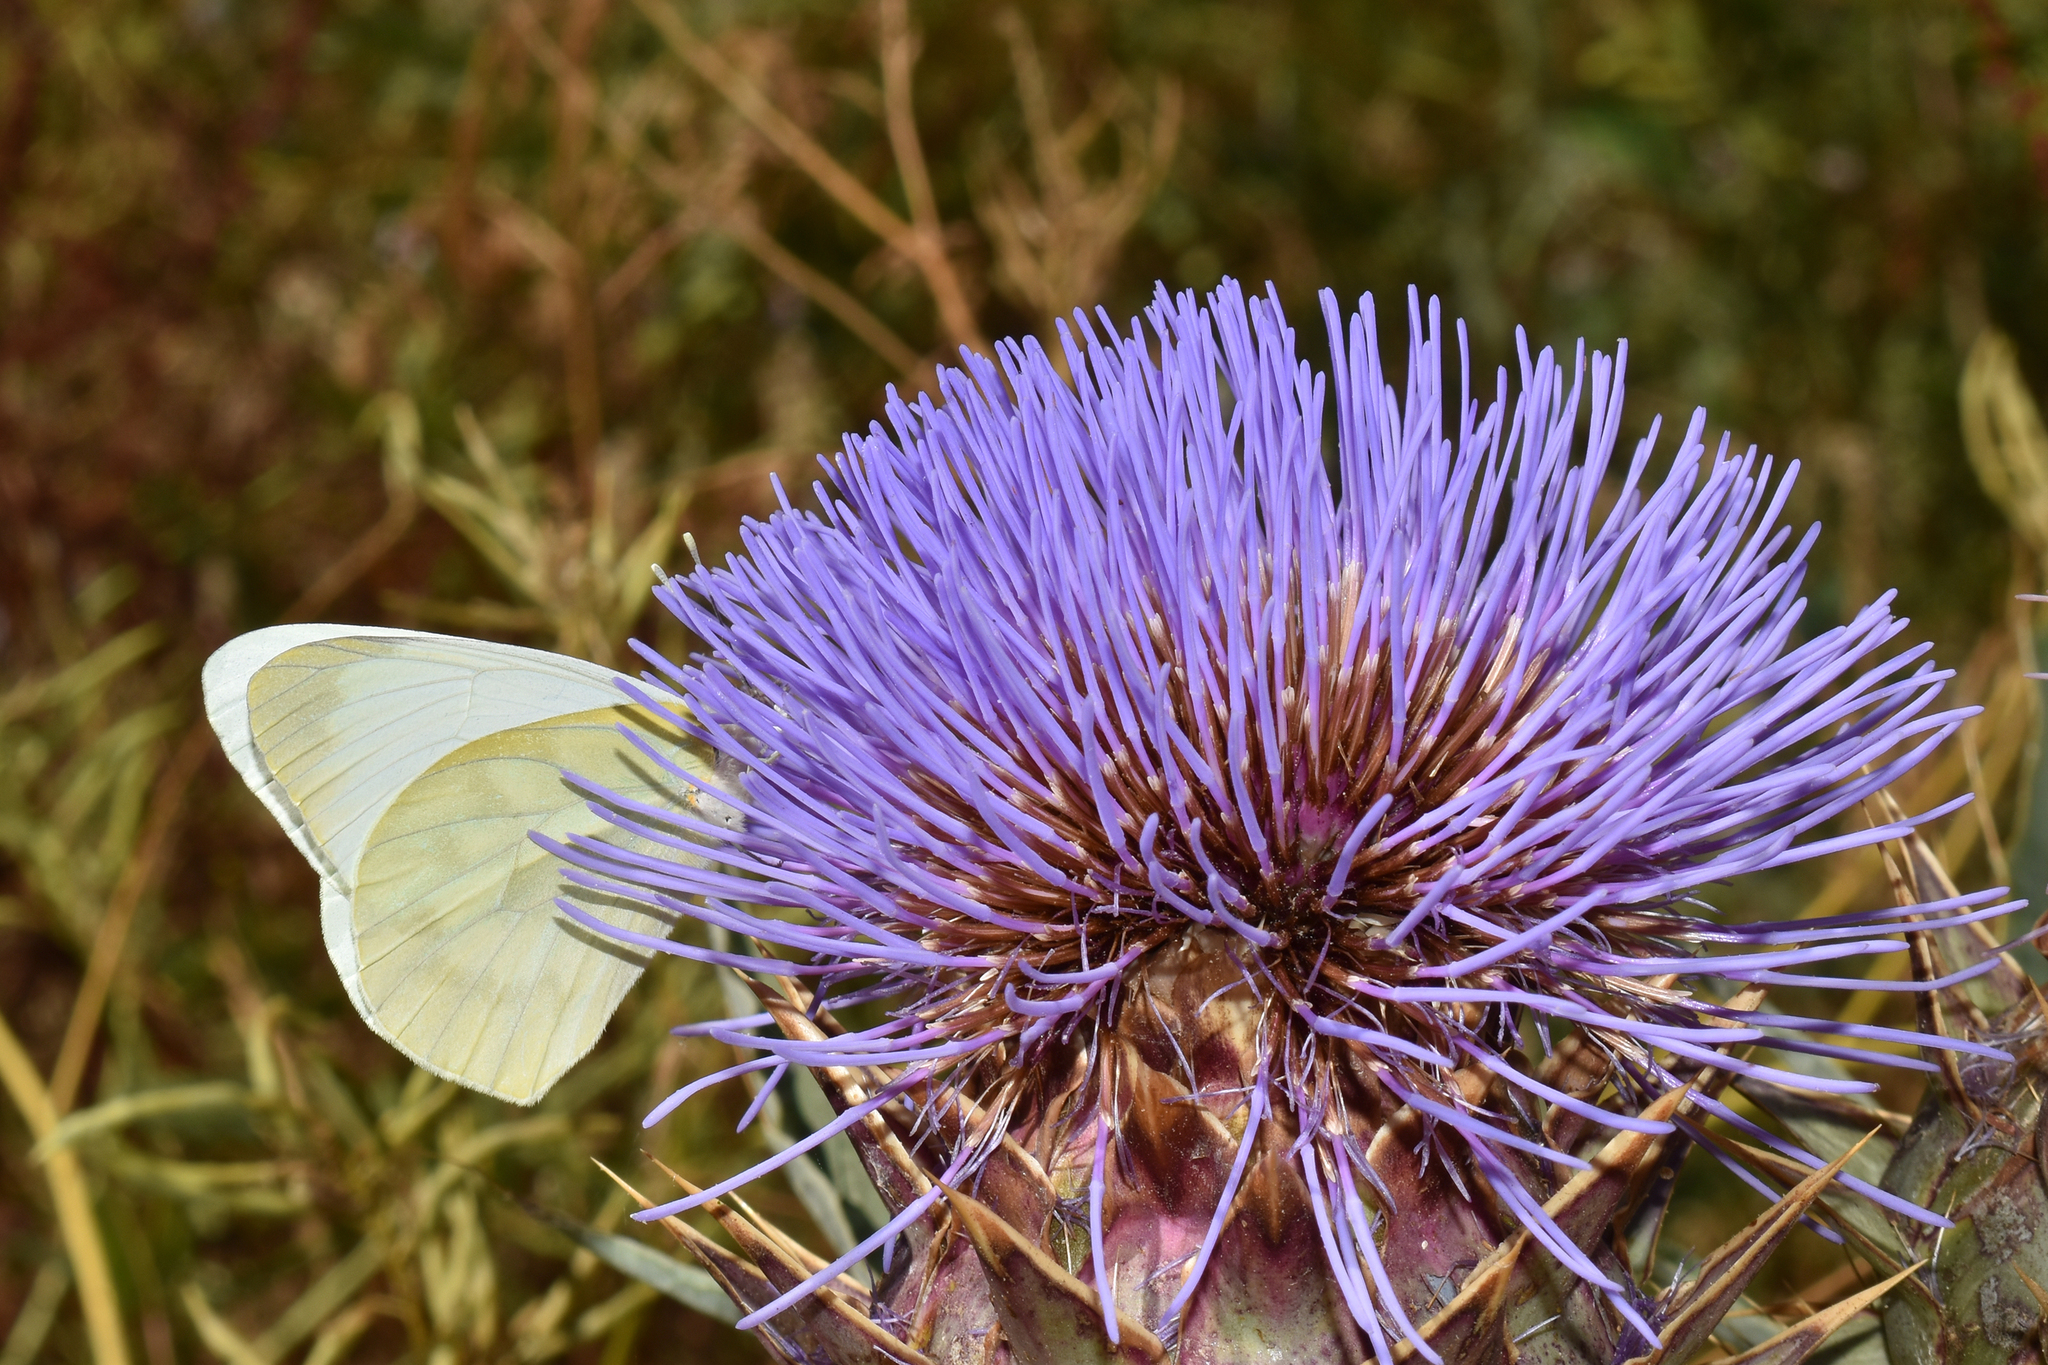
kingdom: Animalia
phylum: Arthropoda
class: Insecta
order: Lepidoptera
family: Pieridae
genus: Mathania
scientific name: Mathania leucothea
